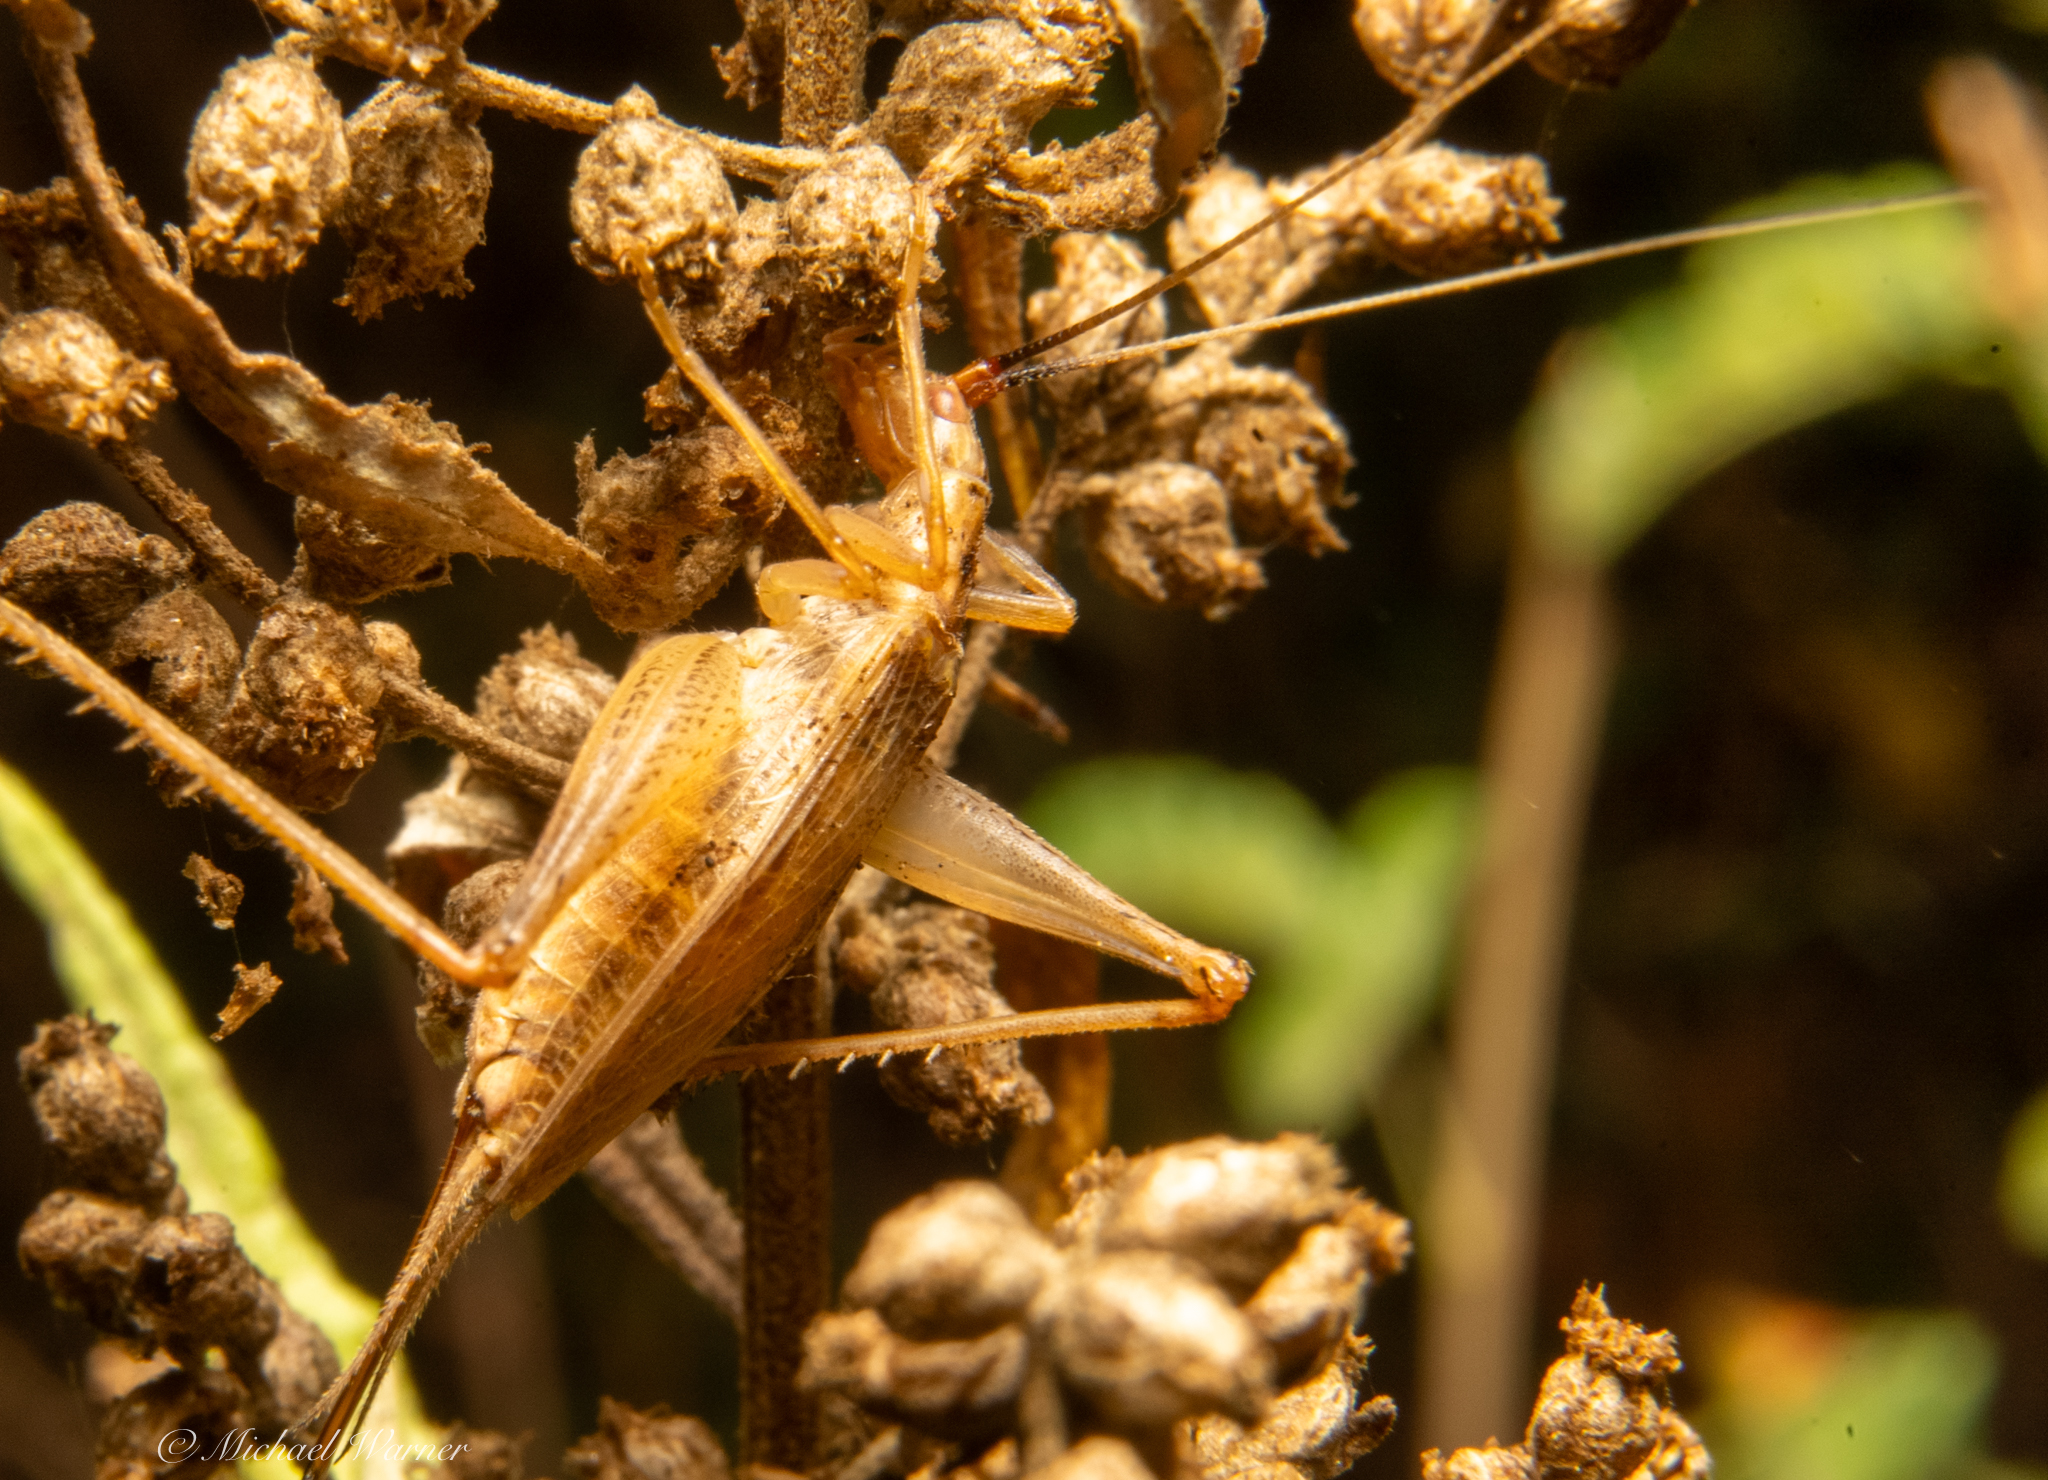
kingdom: Animalia
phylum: Arthropoda
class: Insecta
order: Orthoptera
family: Gryllidae
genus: Oecanthus
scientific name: Oecanthus californicus
